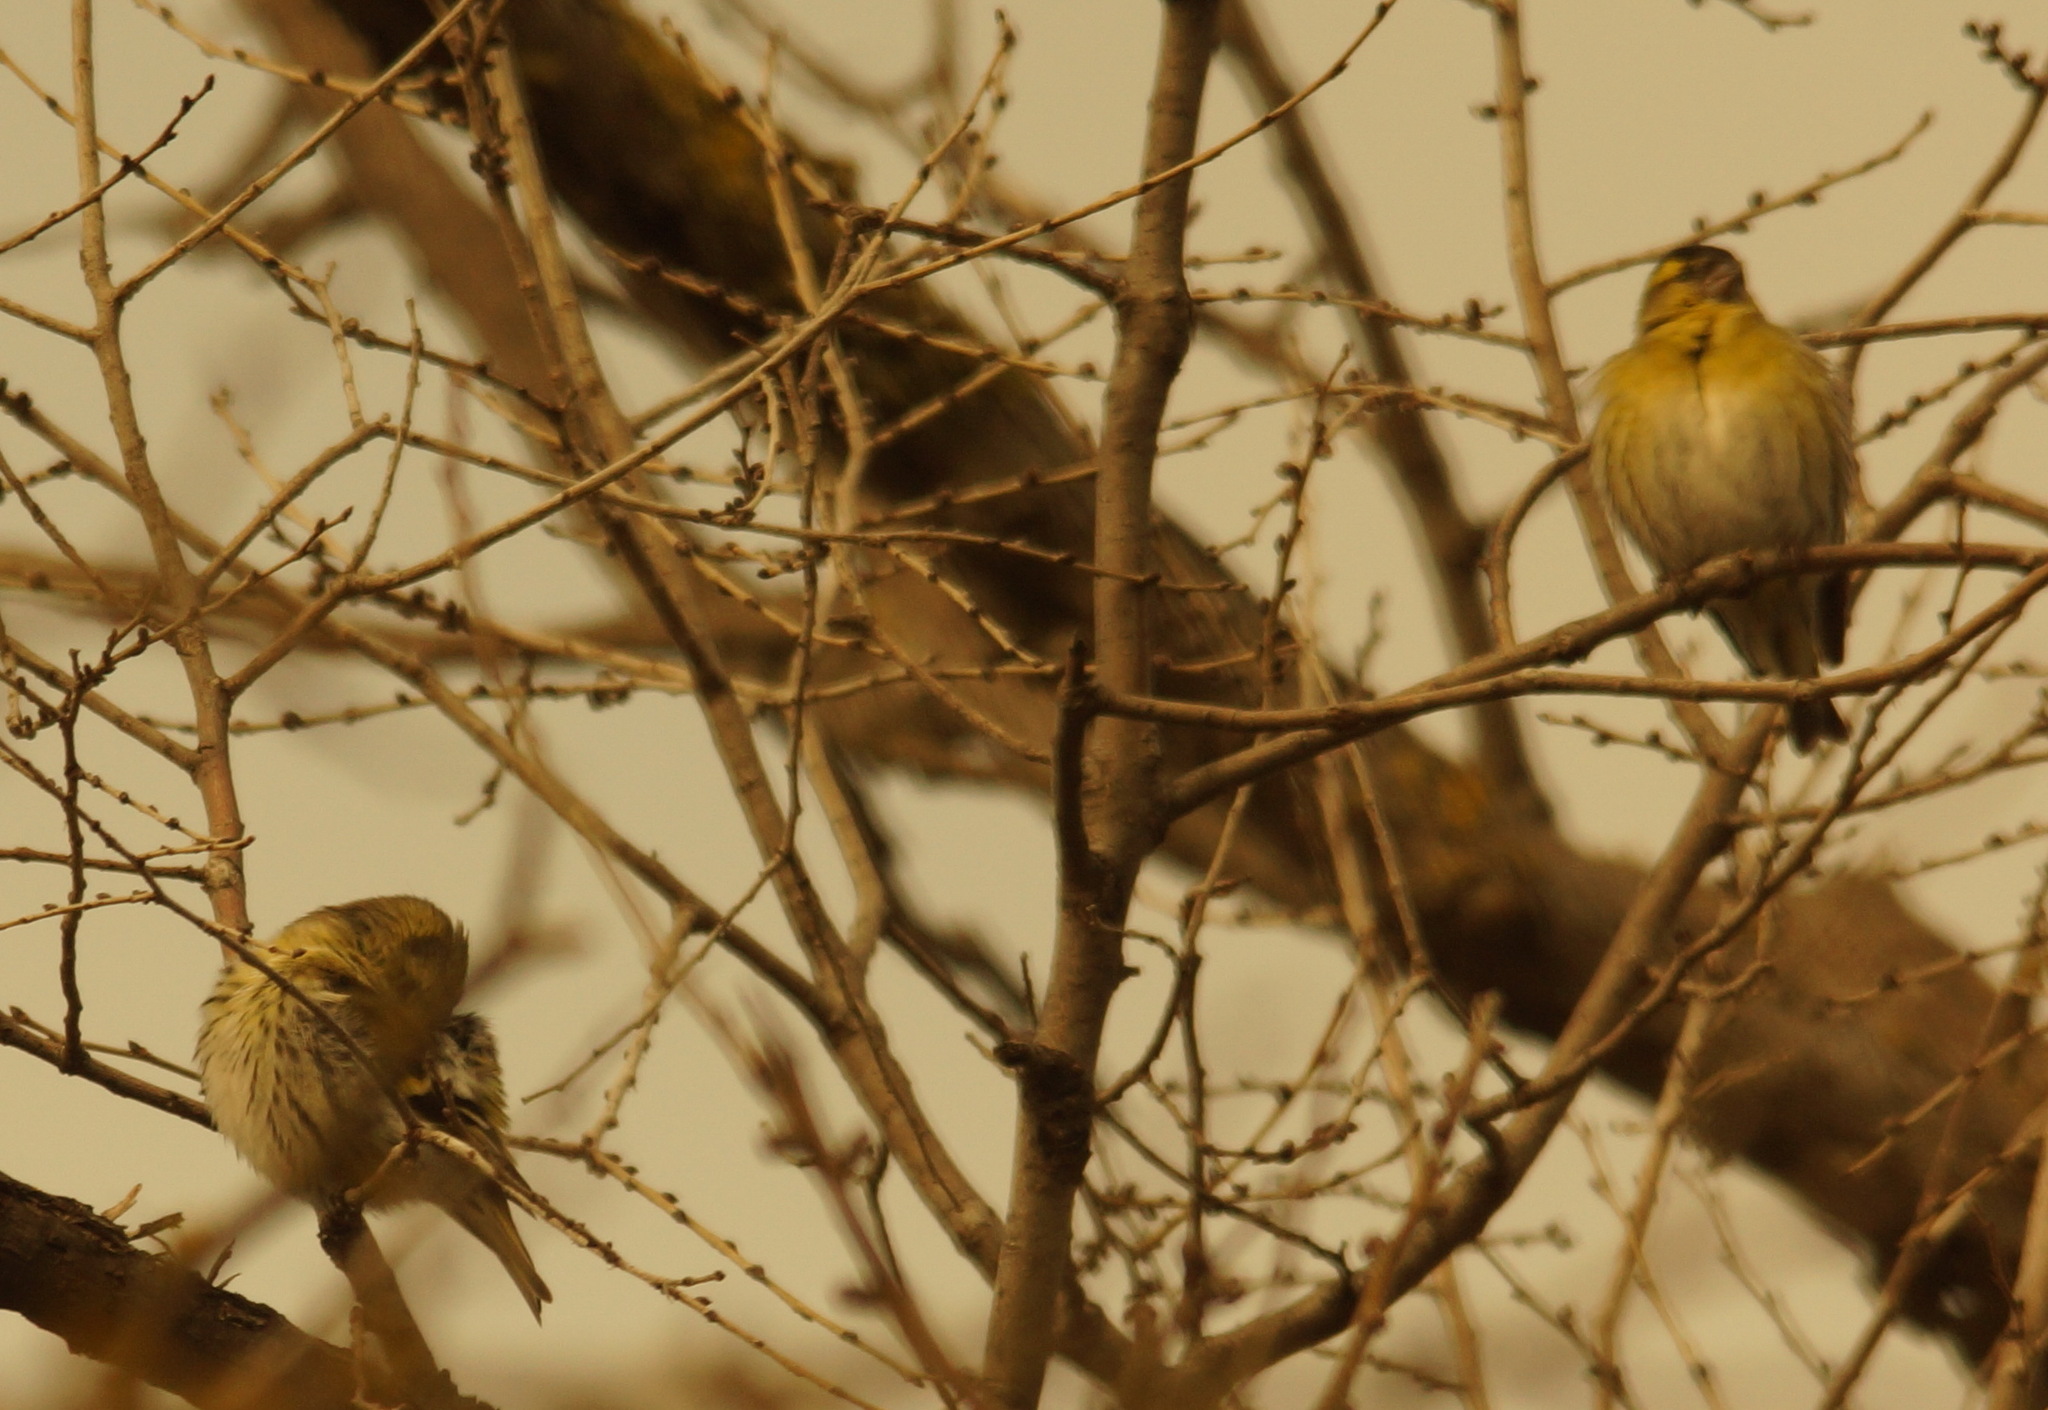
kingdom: Animalia
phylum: Chordata
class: Aves
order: Passeriformes
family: Fringillidae
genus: Spinus
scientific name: Spinus spinus
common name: Eurasian siskin
